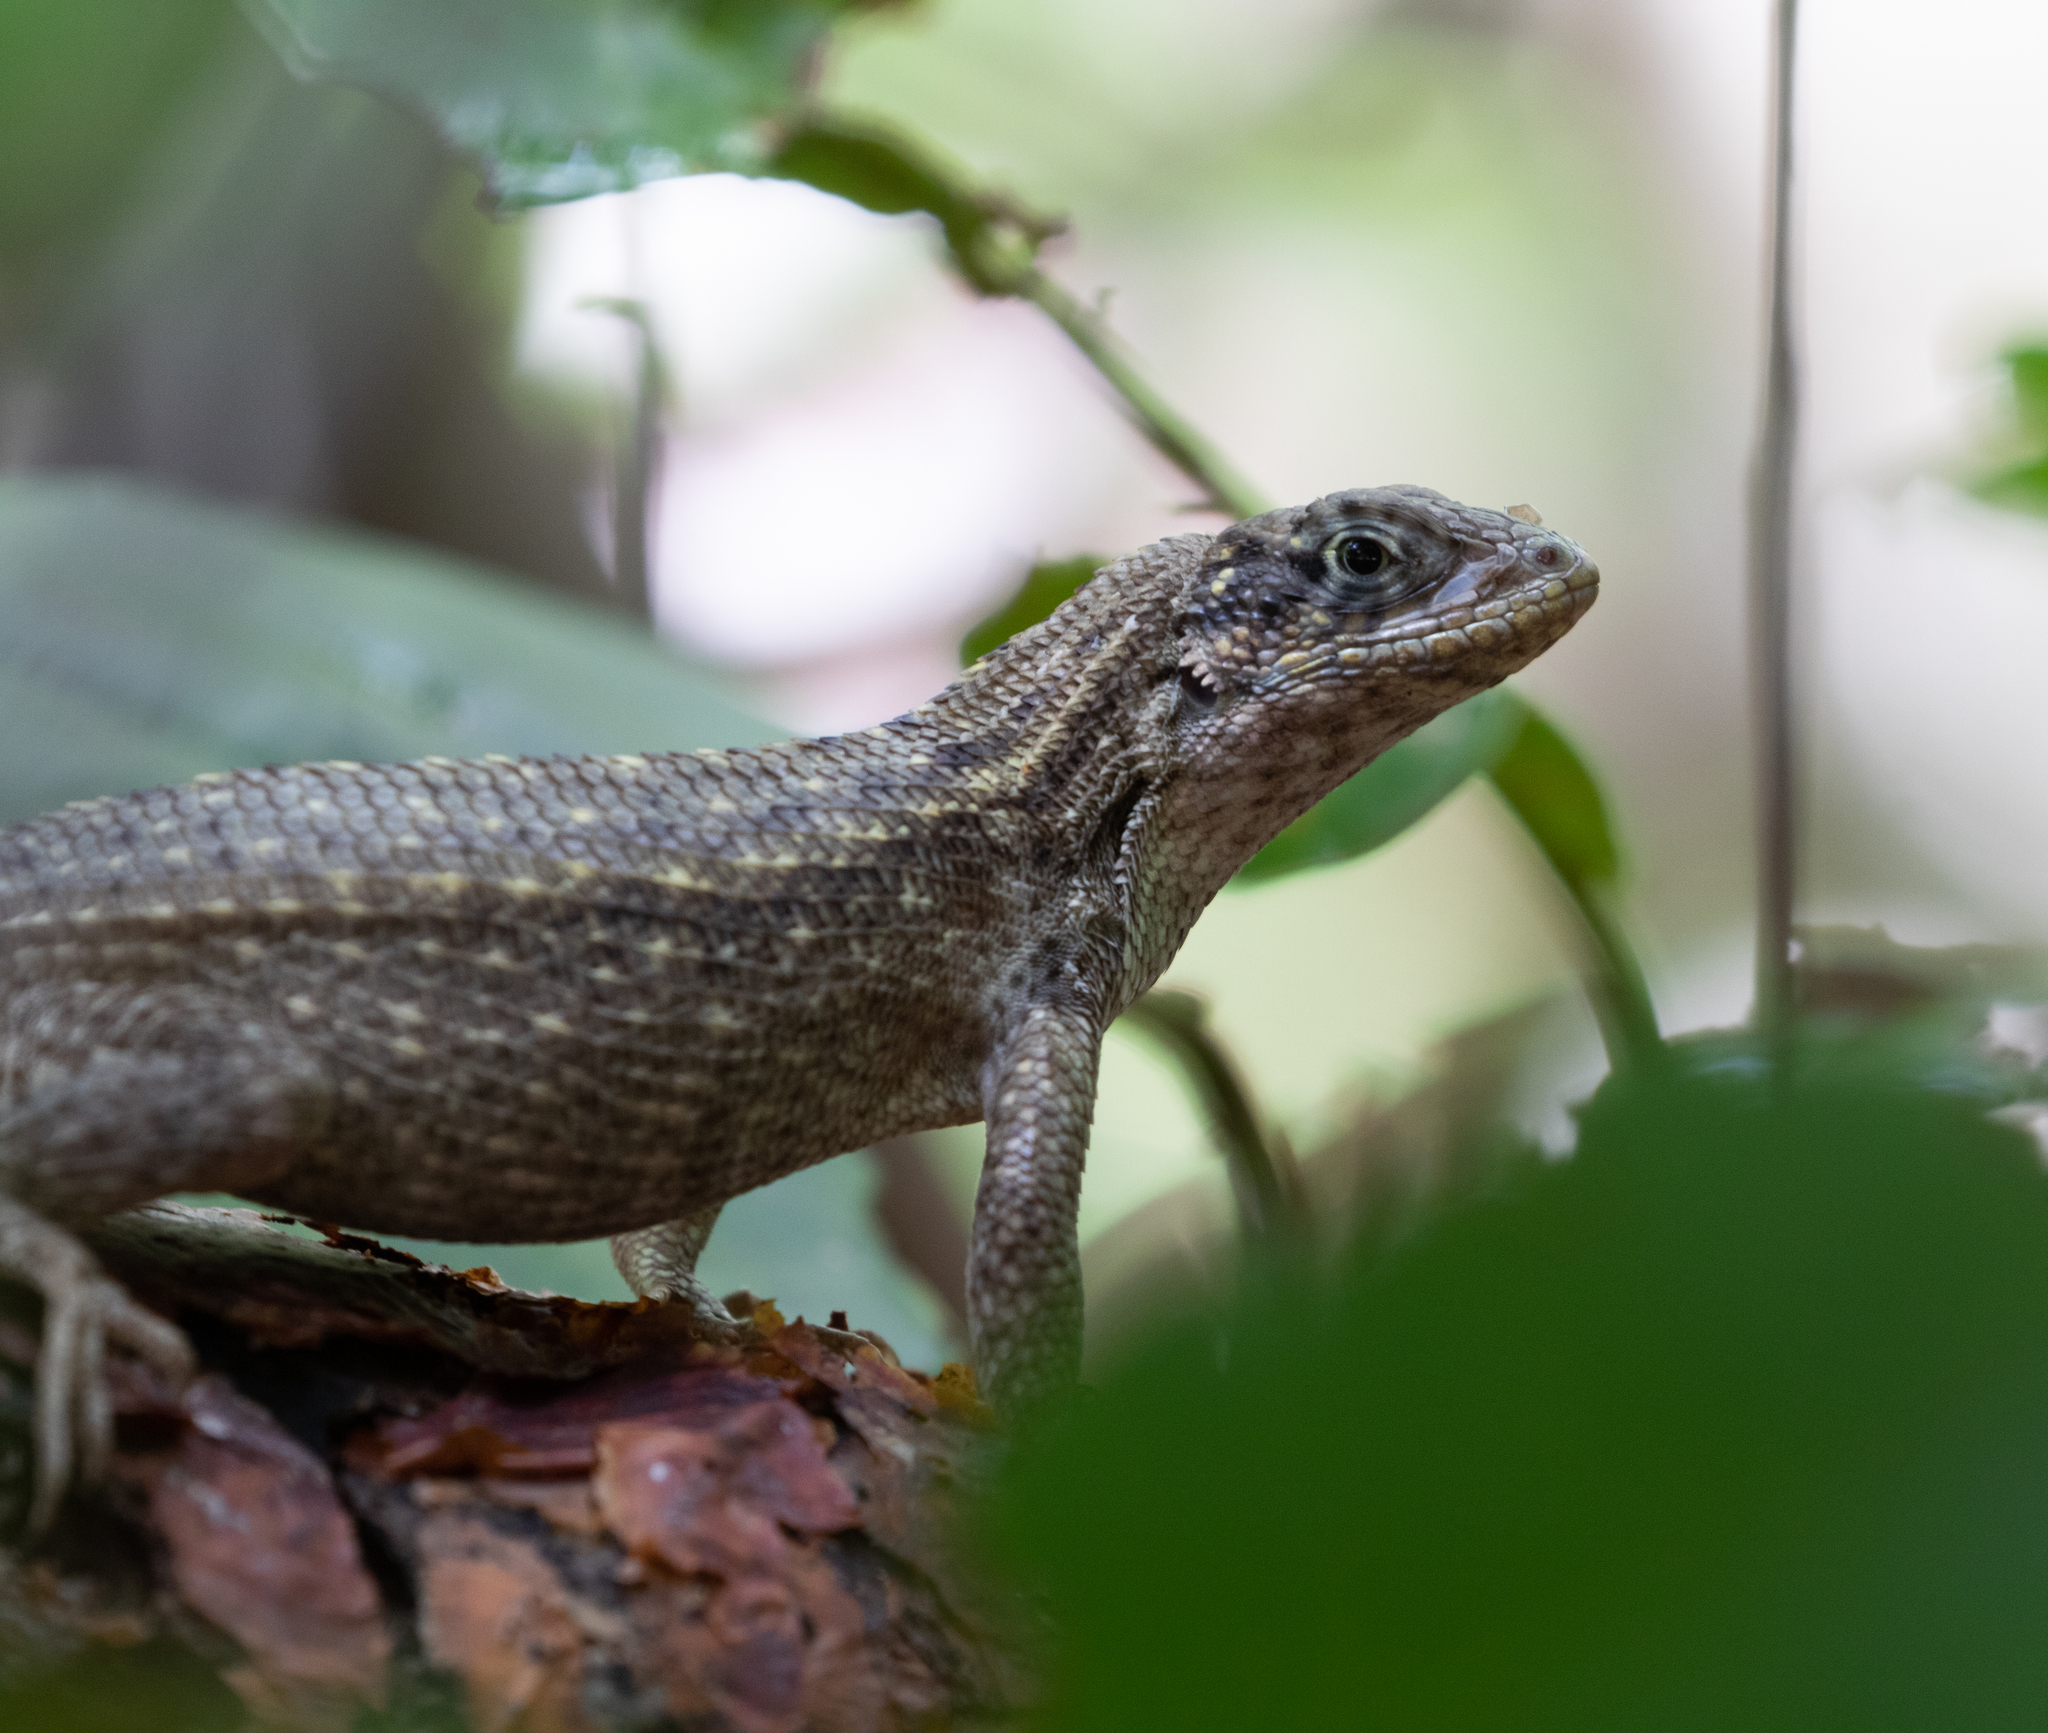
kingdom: Animalia
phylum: Chordata
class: Squamata
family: Leiocephalidae
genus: Leiocephalus
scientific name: Leiocephalus carinatus
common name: Northern curly-tailed lizard
